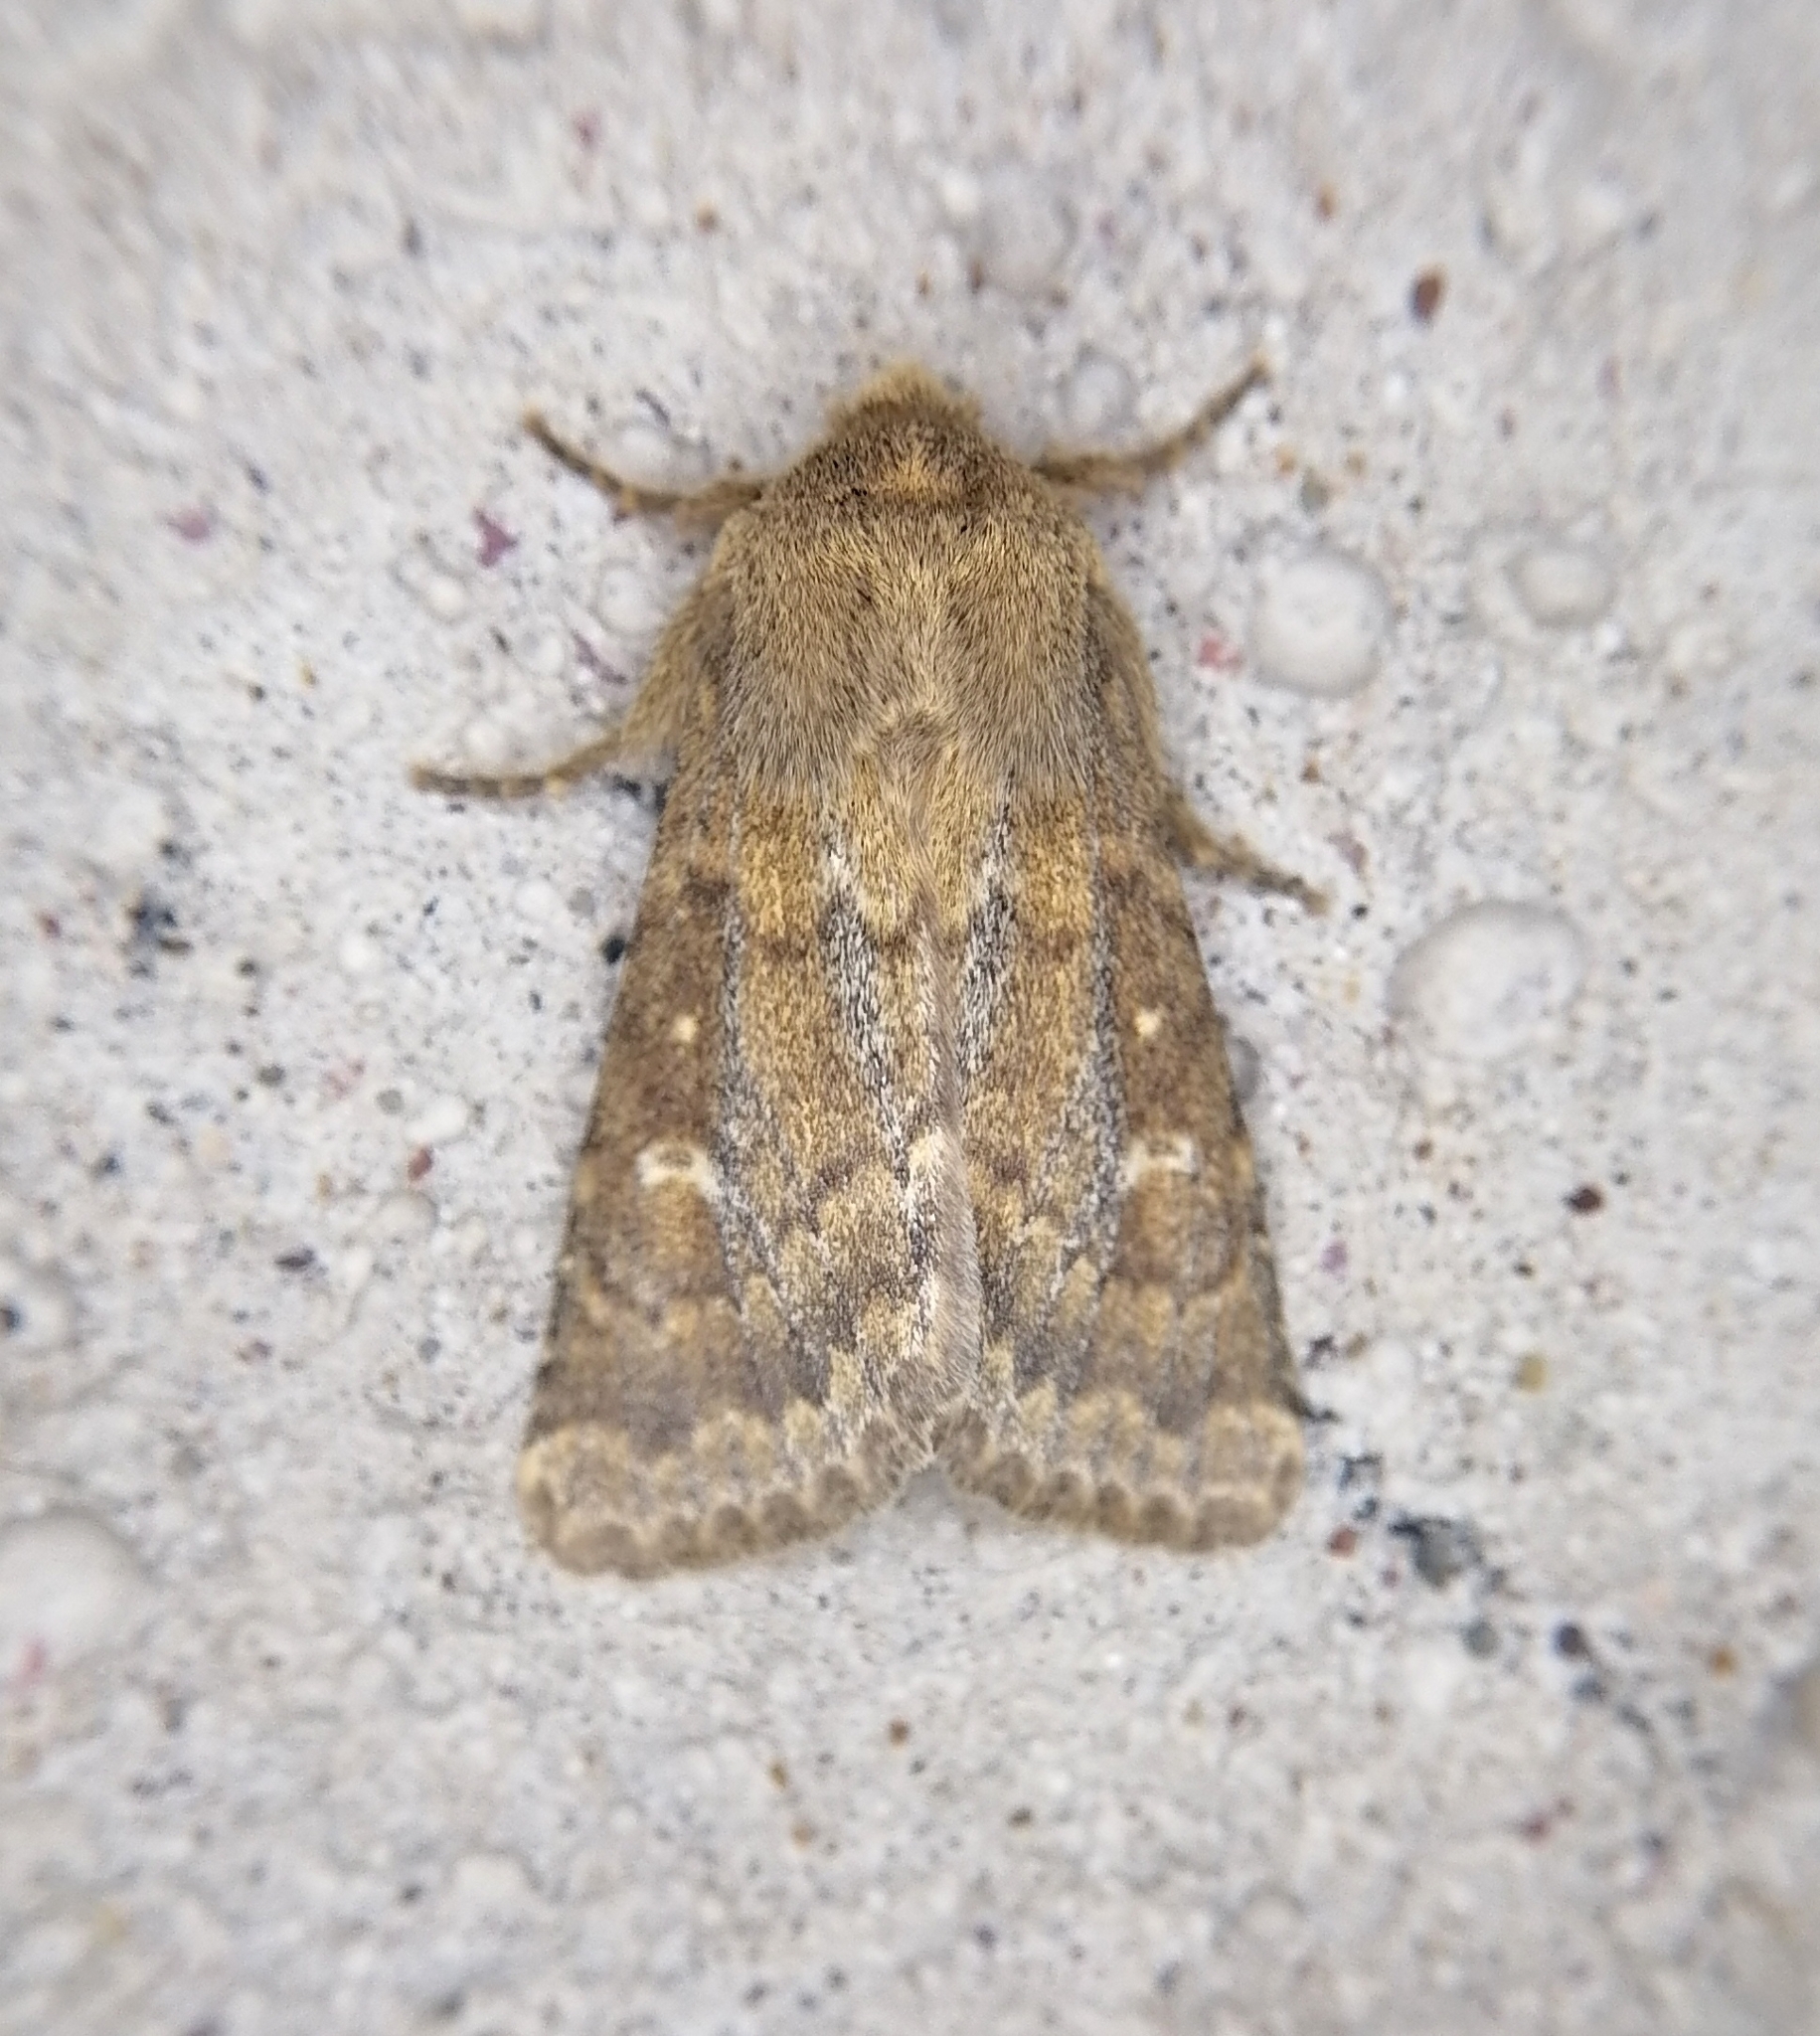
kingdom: Animalia
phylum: Arthropoda
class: Insecta
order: Lepidoptera
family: Noctuidae
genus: Dasypolia
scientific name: Dasypolia templi
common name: Brindled ochre
